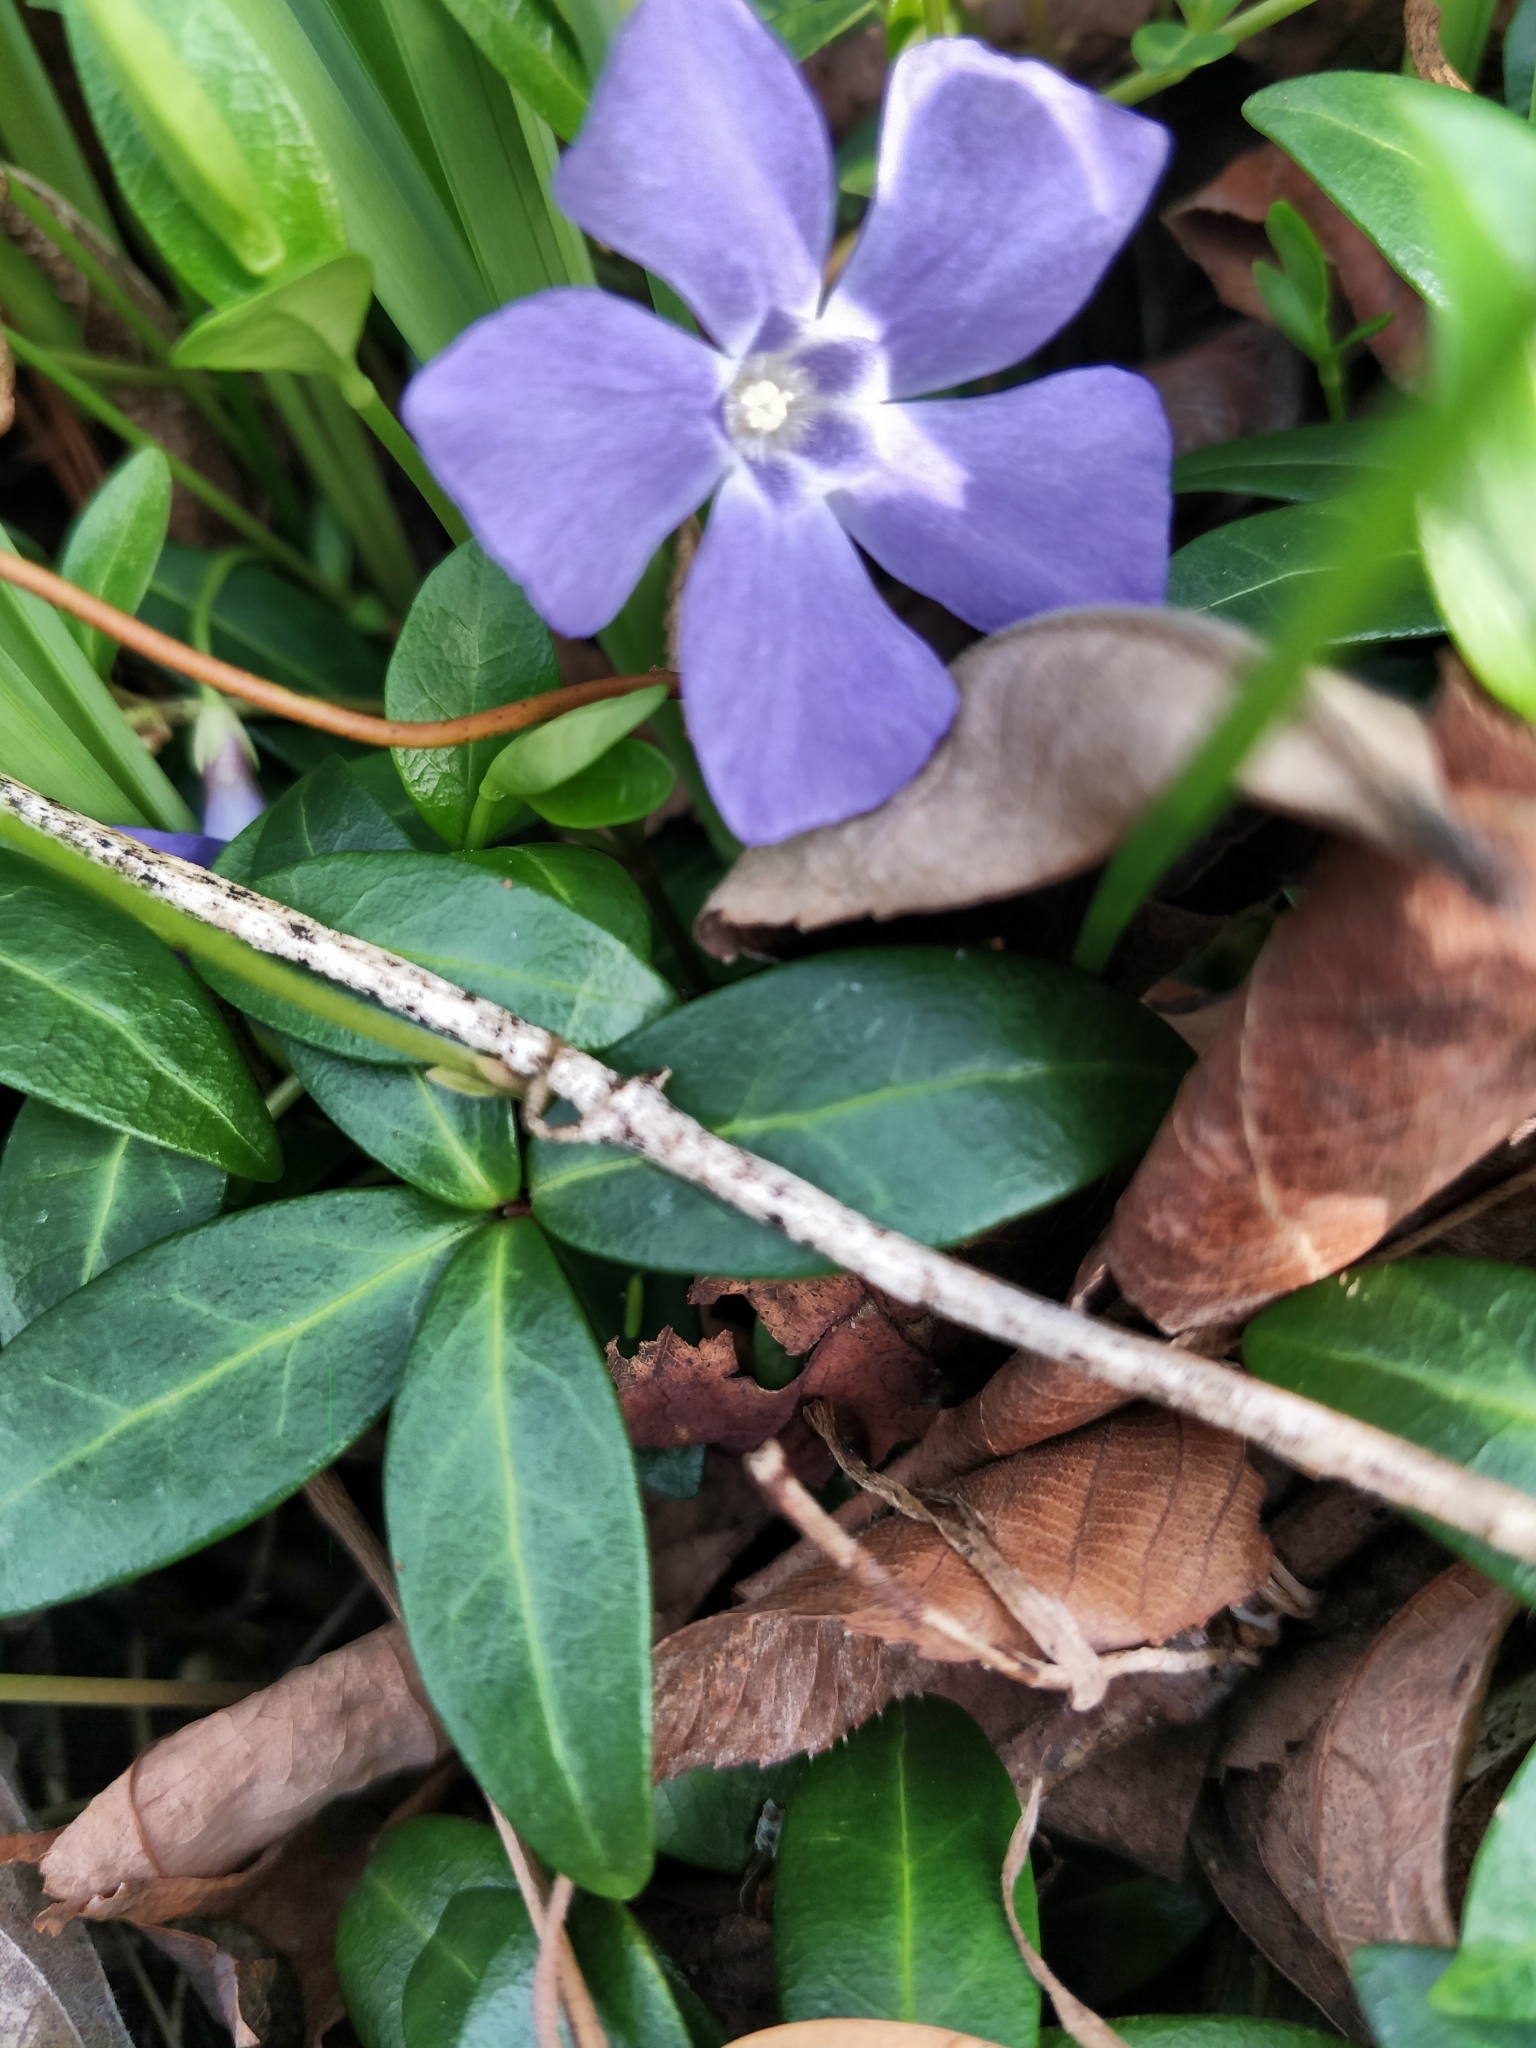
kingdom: Plantae
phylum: Tracheophyta
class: Magnoliopsida
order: Gentianales
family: Apocynaceae
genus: Vinca
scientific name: Vinca minor
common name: Lesser periwinkle
